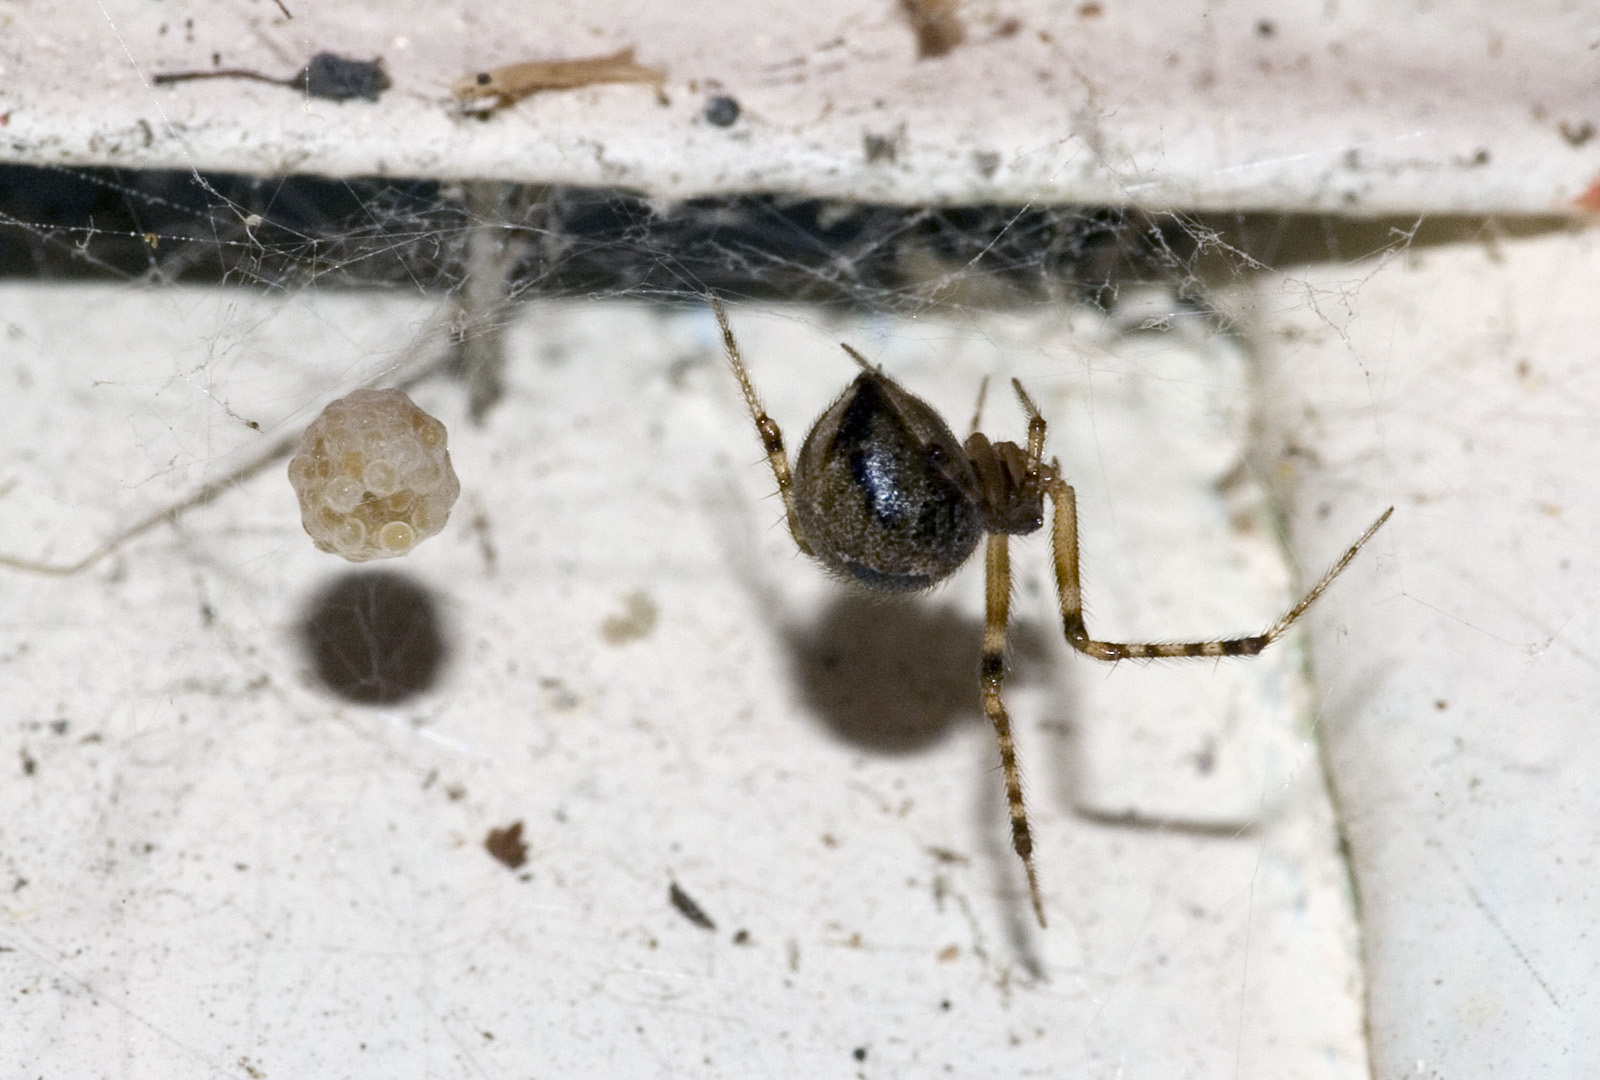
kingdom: Animalia
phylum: Arthropoda
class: Arachnida
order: Araneae
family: Theridiidae
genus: Cryptachaea
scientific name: Cryptachaea veruculata
